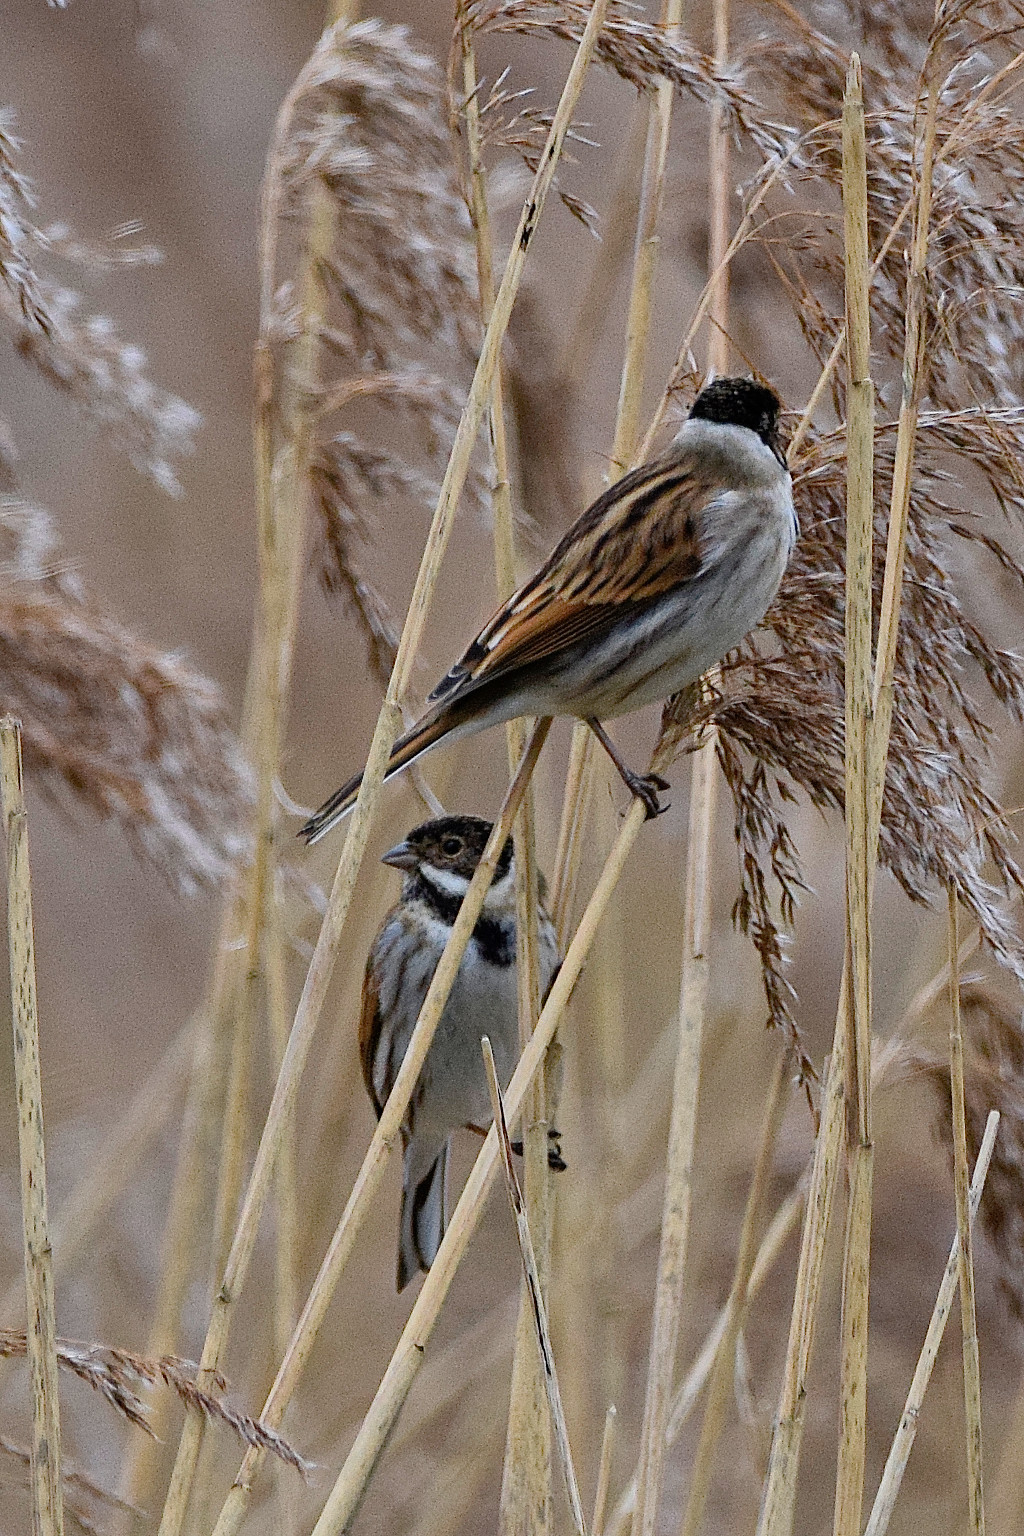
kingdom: Animalia
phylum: Chordata
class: Aves
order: Passeriformes
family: Emberizidae
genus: Emberiza
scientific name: Emberiza schoeniclus
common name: Reed bunting
